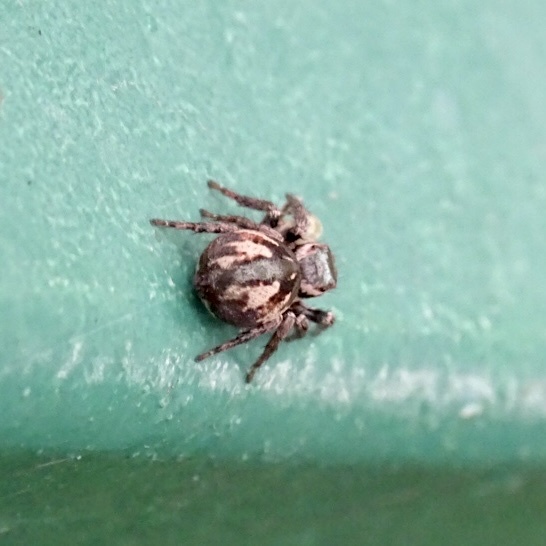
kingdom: Animalia
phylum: Arthropoda
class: Arachnida
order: Araneae
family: Salticidae
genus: Carrhotus
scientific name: Carrhotus viduus
